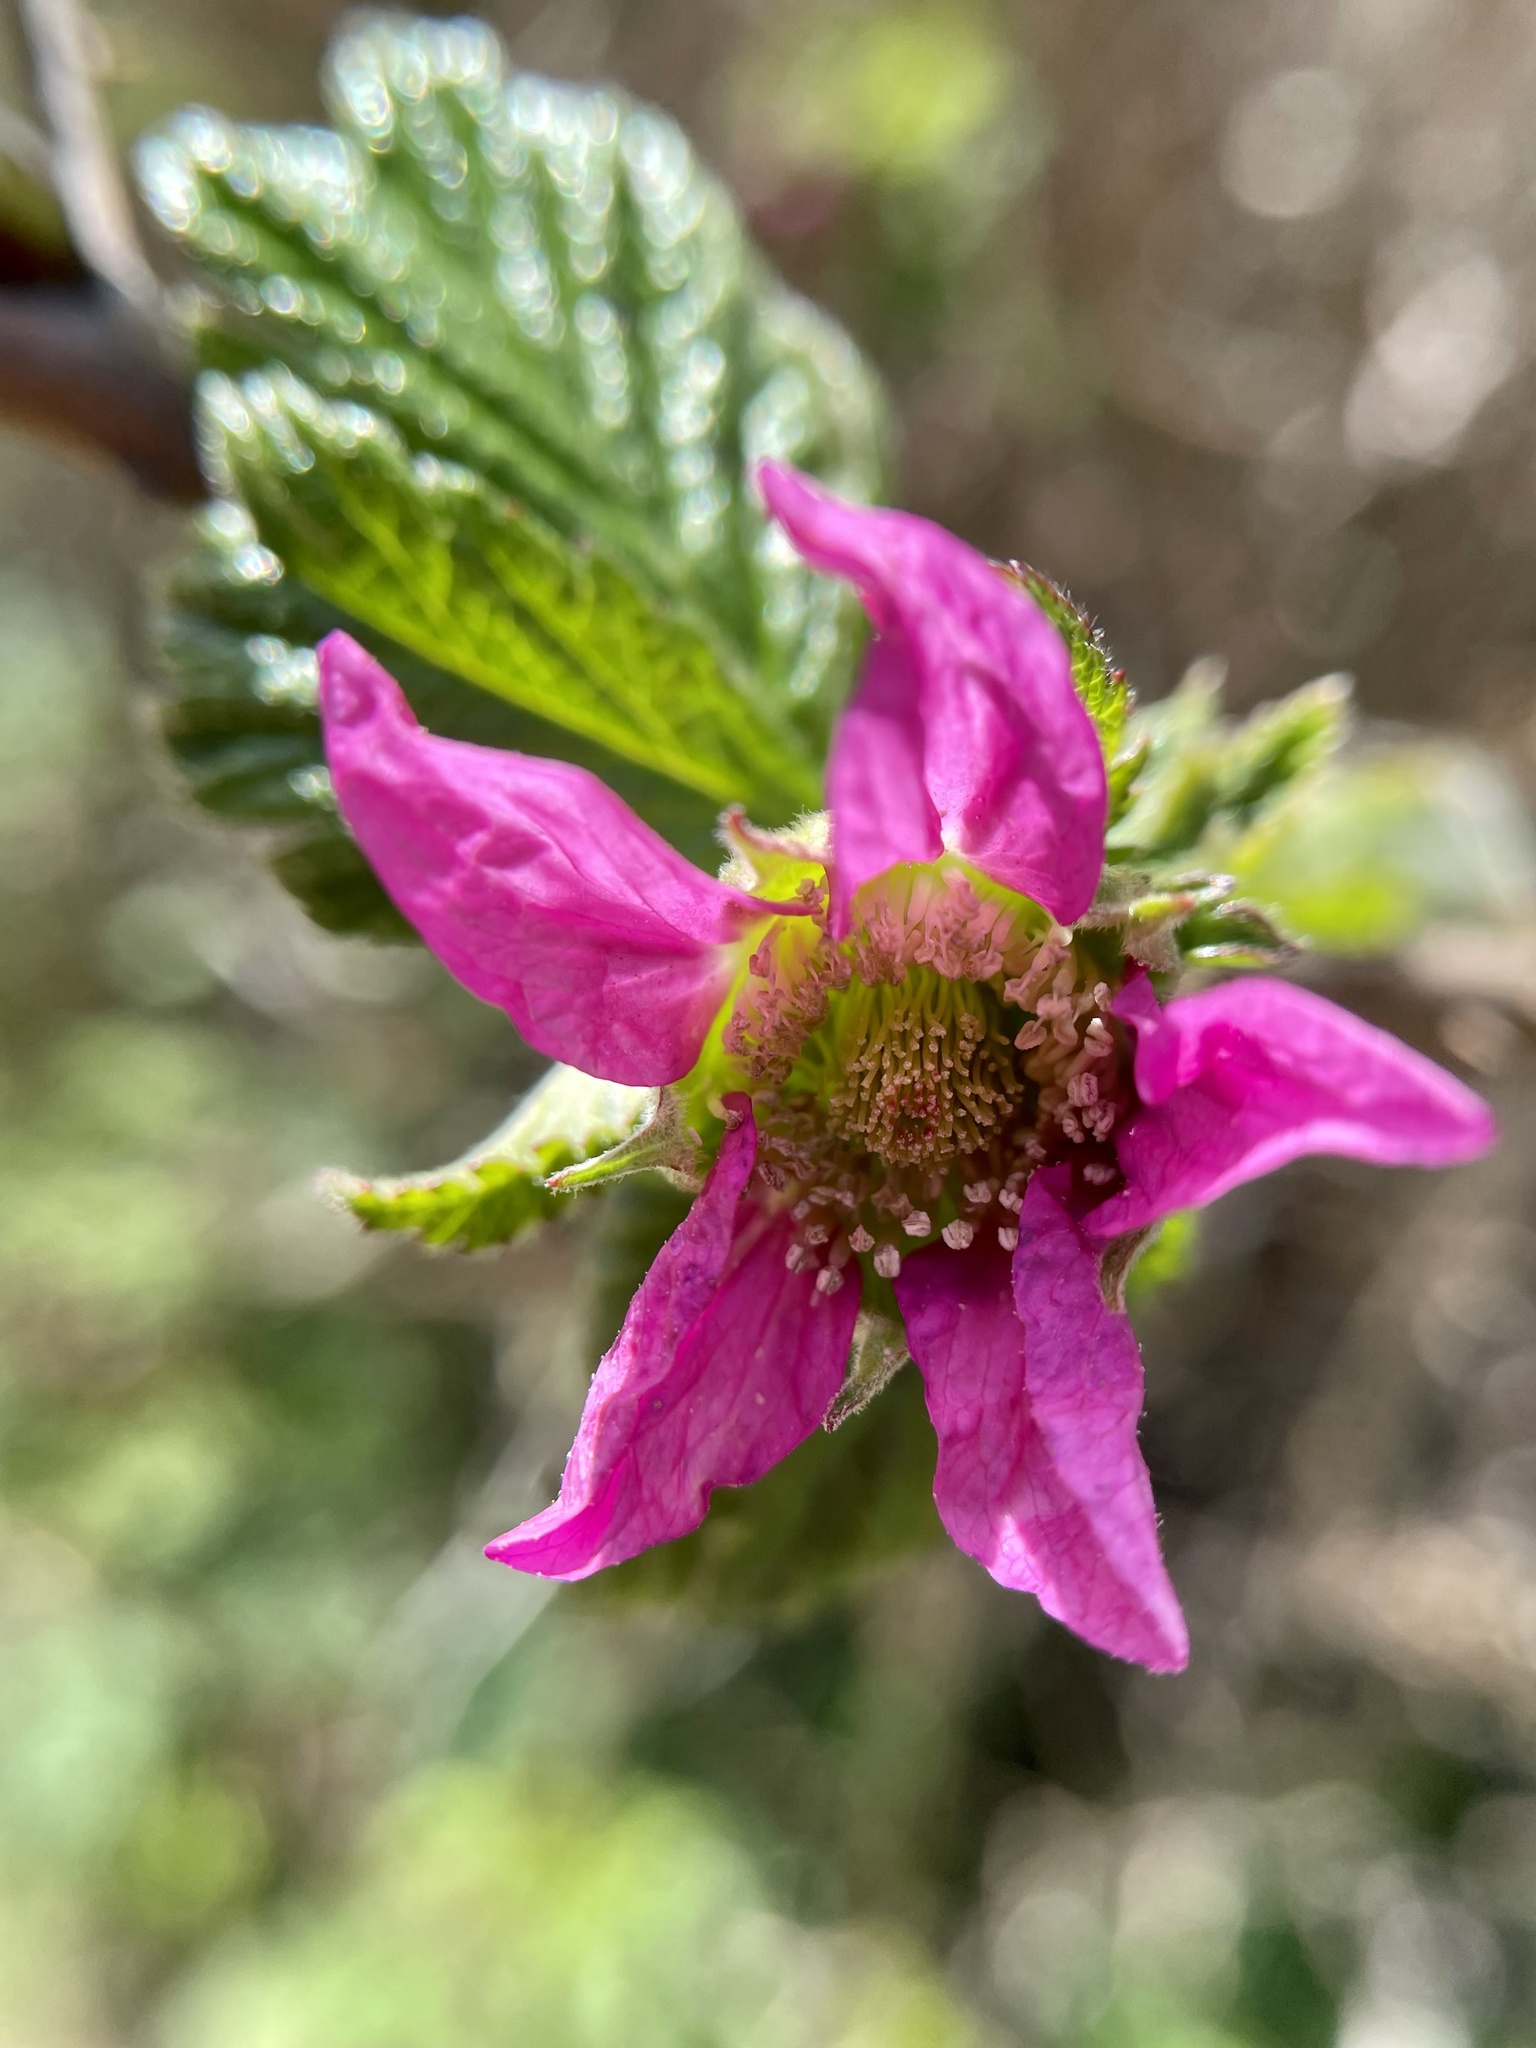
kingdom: Plantae
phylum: Tracheophyta
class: Magnoliopsida
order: Rosales
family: Rosaceae
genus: Rubus
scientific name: Rubus spectabilis
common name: Salmonberry
